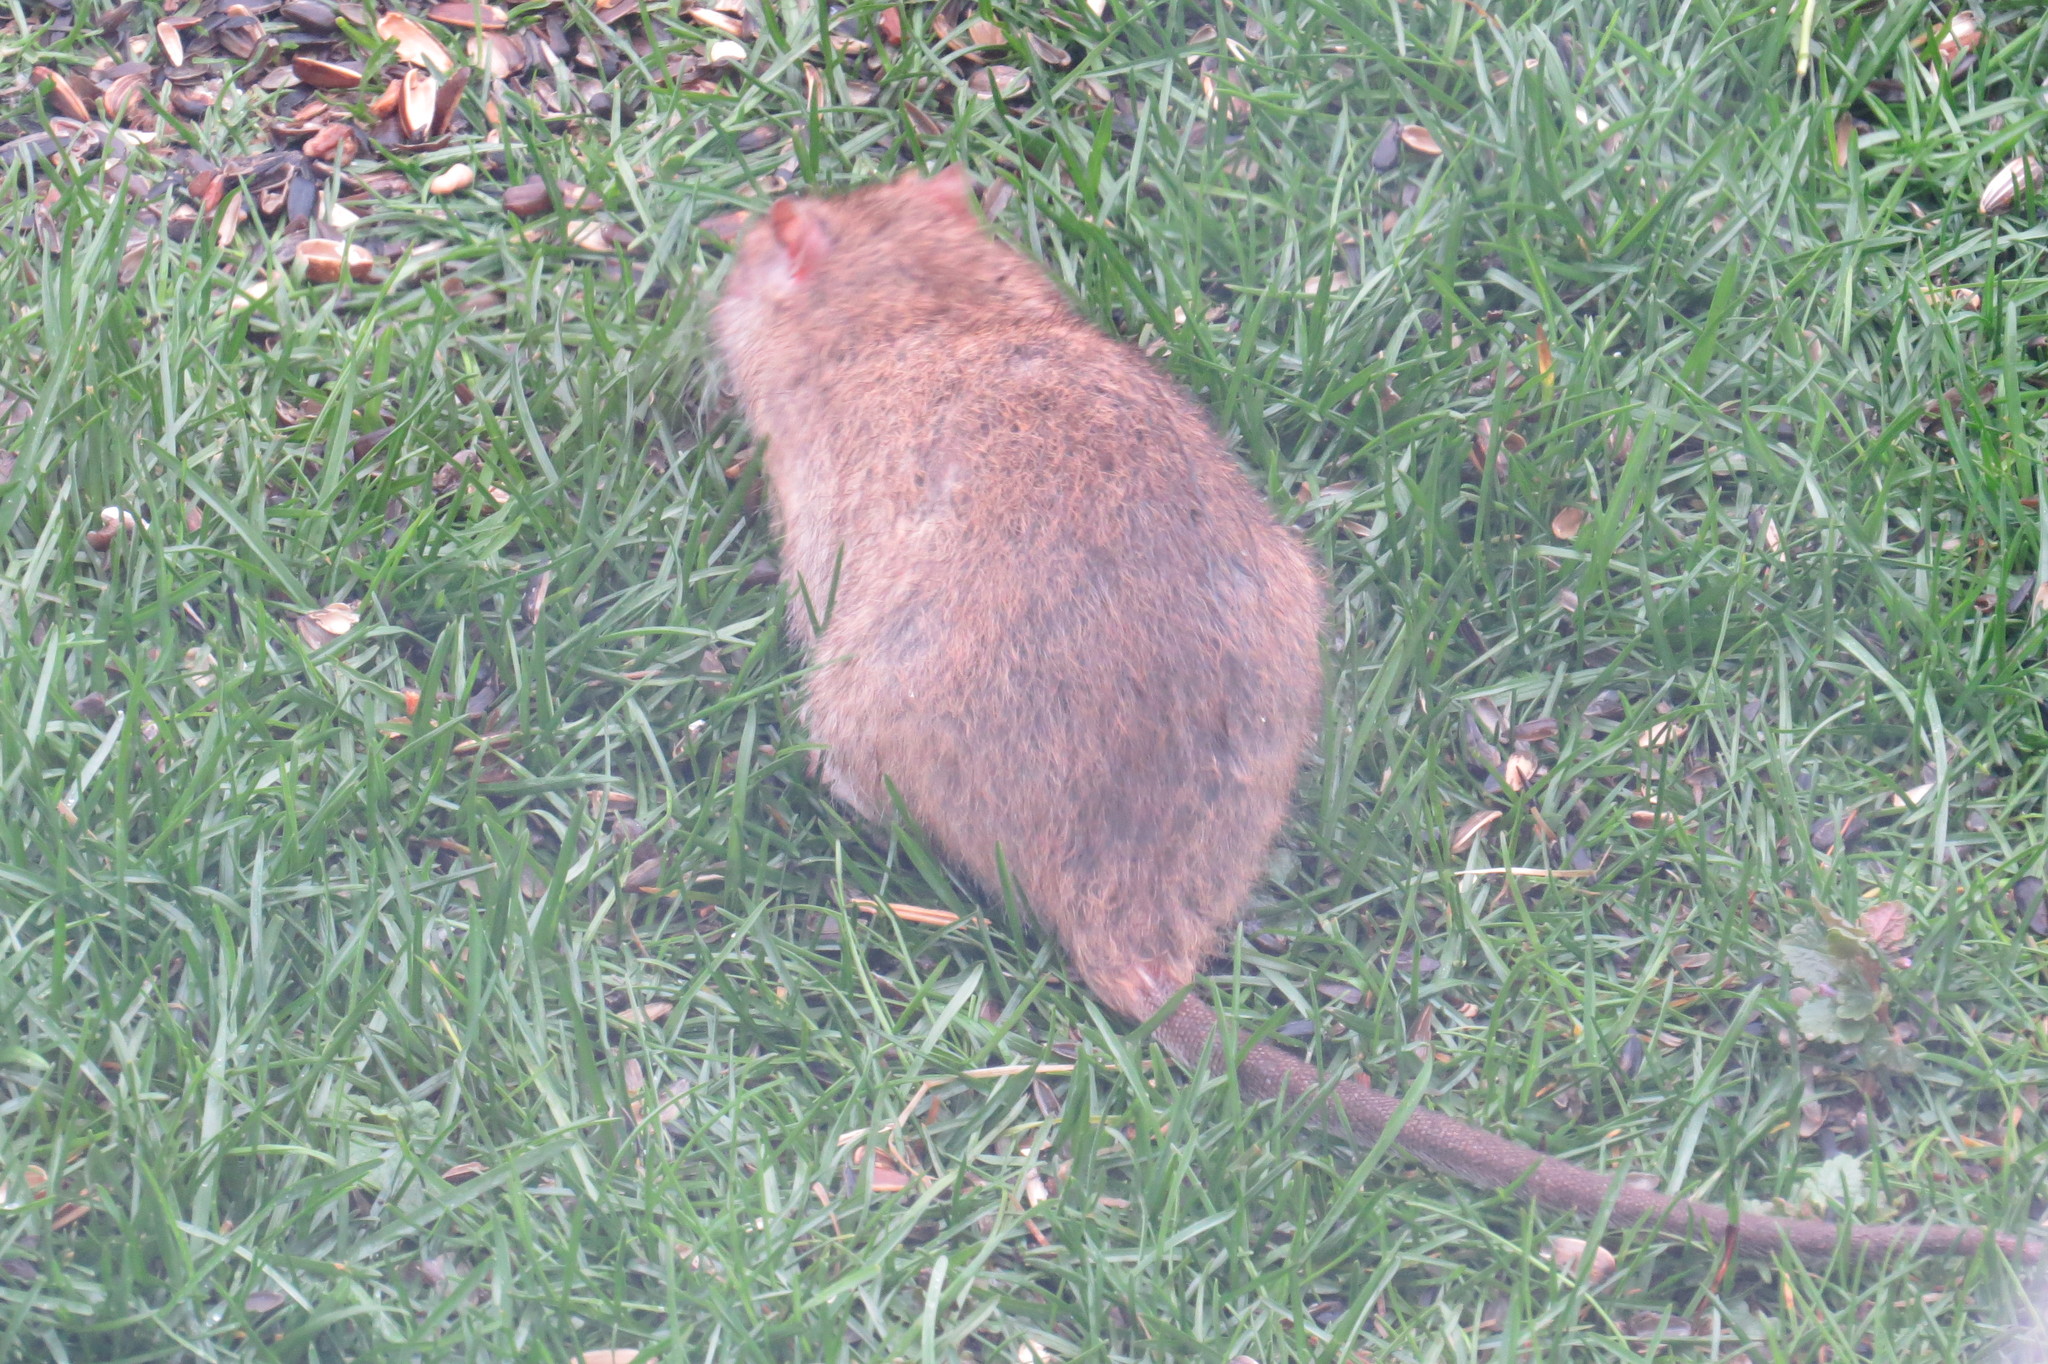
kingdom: Animalia
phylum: Chordata
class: Mammalia
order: Rodentia
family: Muridae
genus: Rattus
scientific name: Rattus norvegicus
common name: Brown rat
